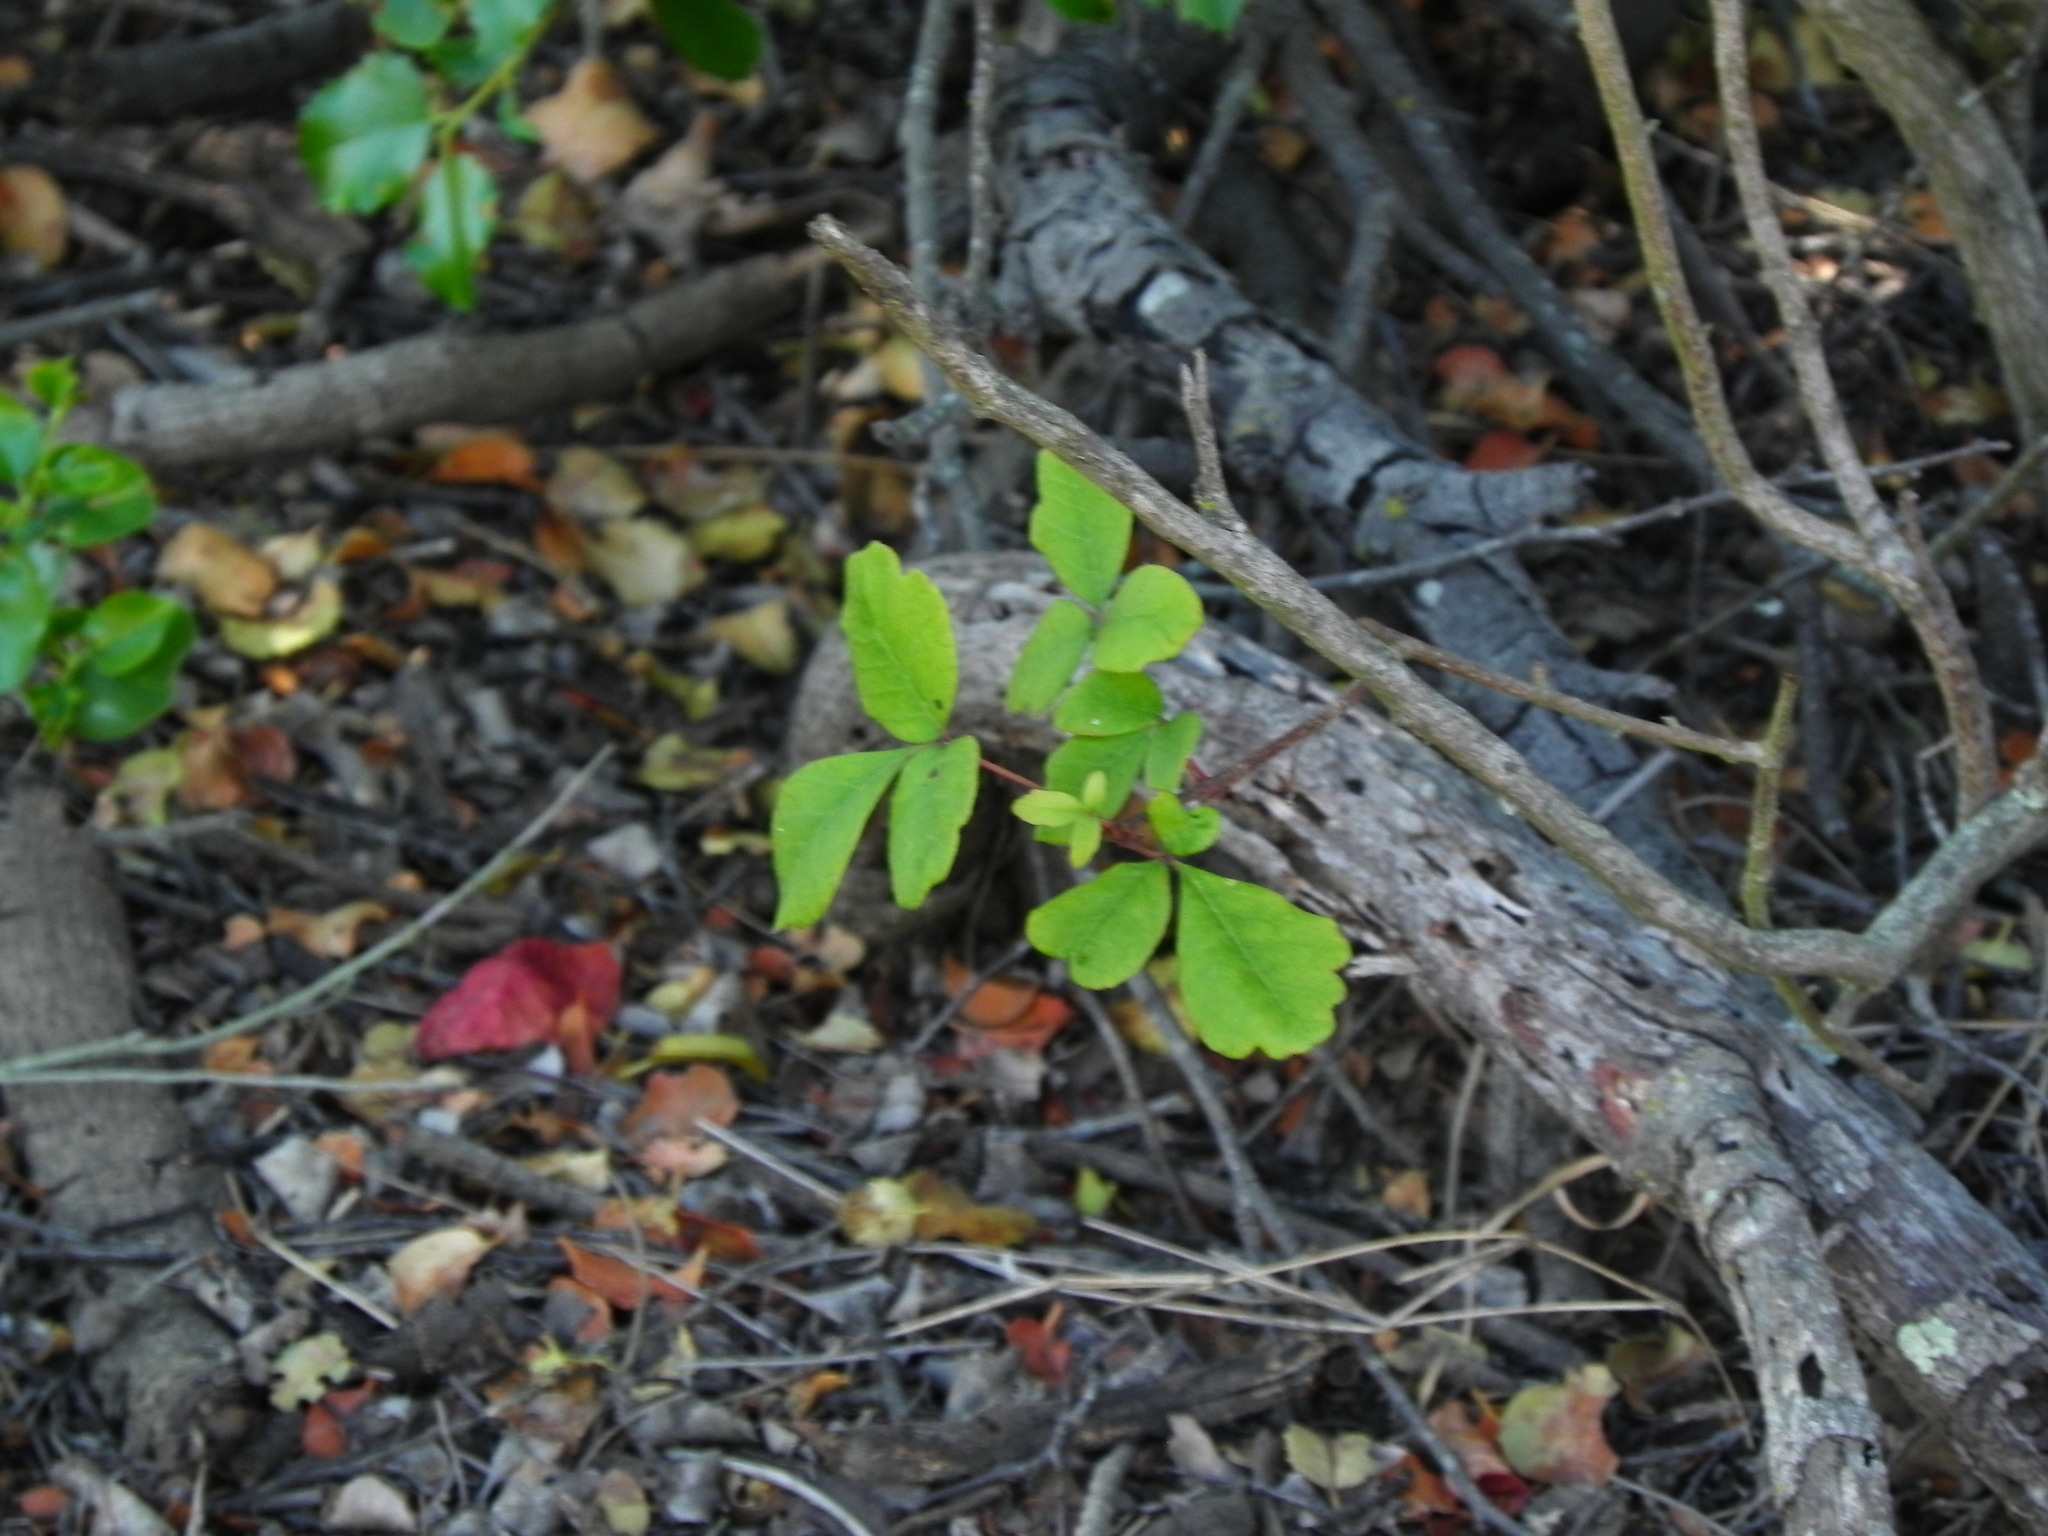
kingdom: Plantae
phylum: Tracheophyta
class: Magnoliopsida
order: Sapindales
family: Anacardiaceae
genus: Toxicodendron
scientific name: Toxicodendron diversilobum
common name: Pacific poison-oak
